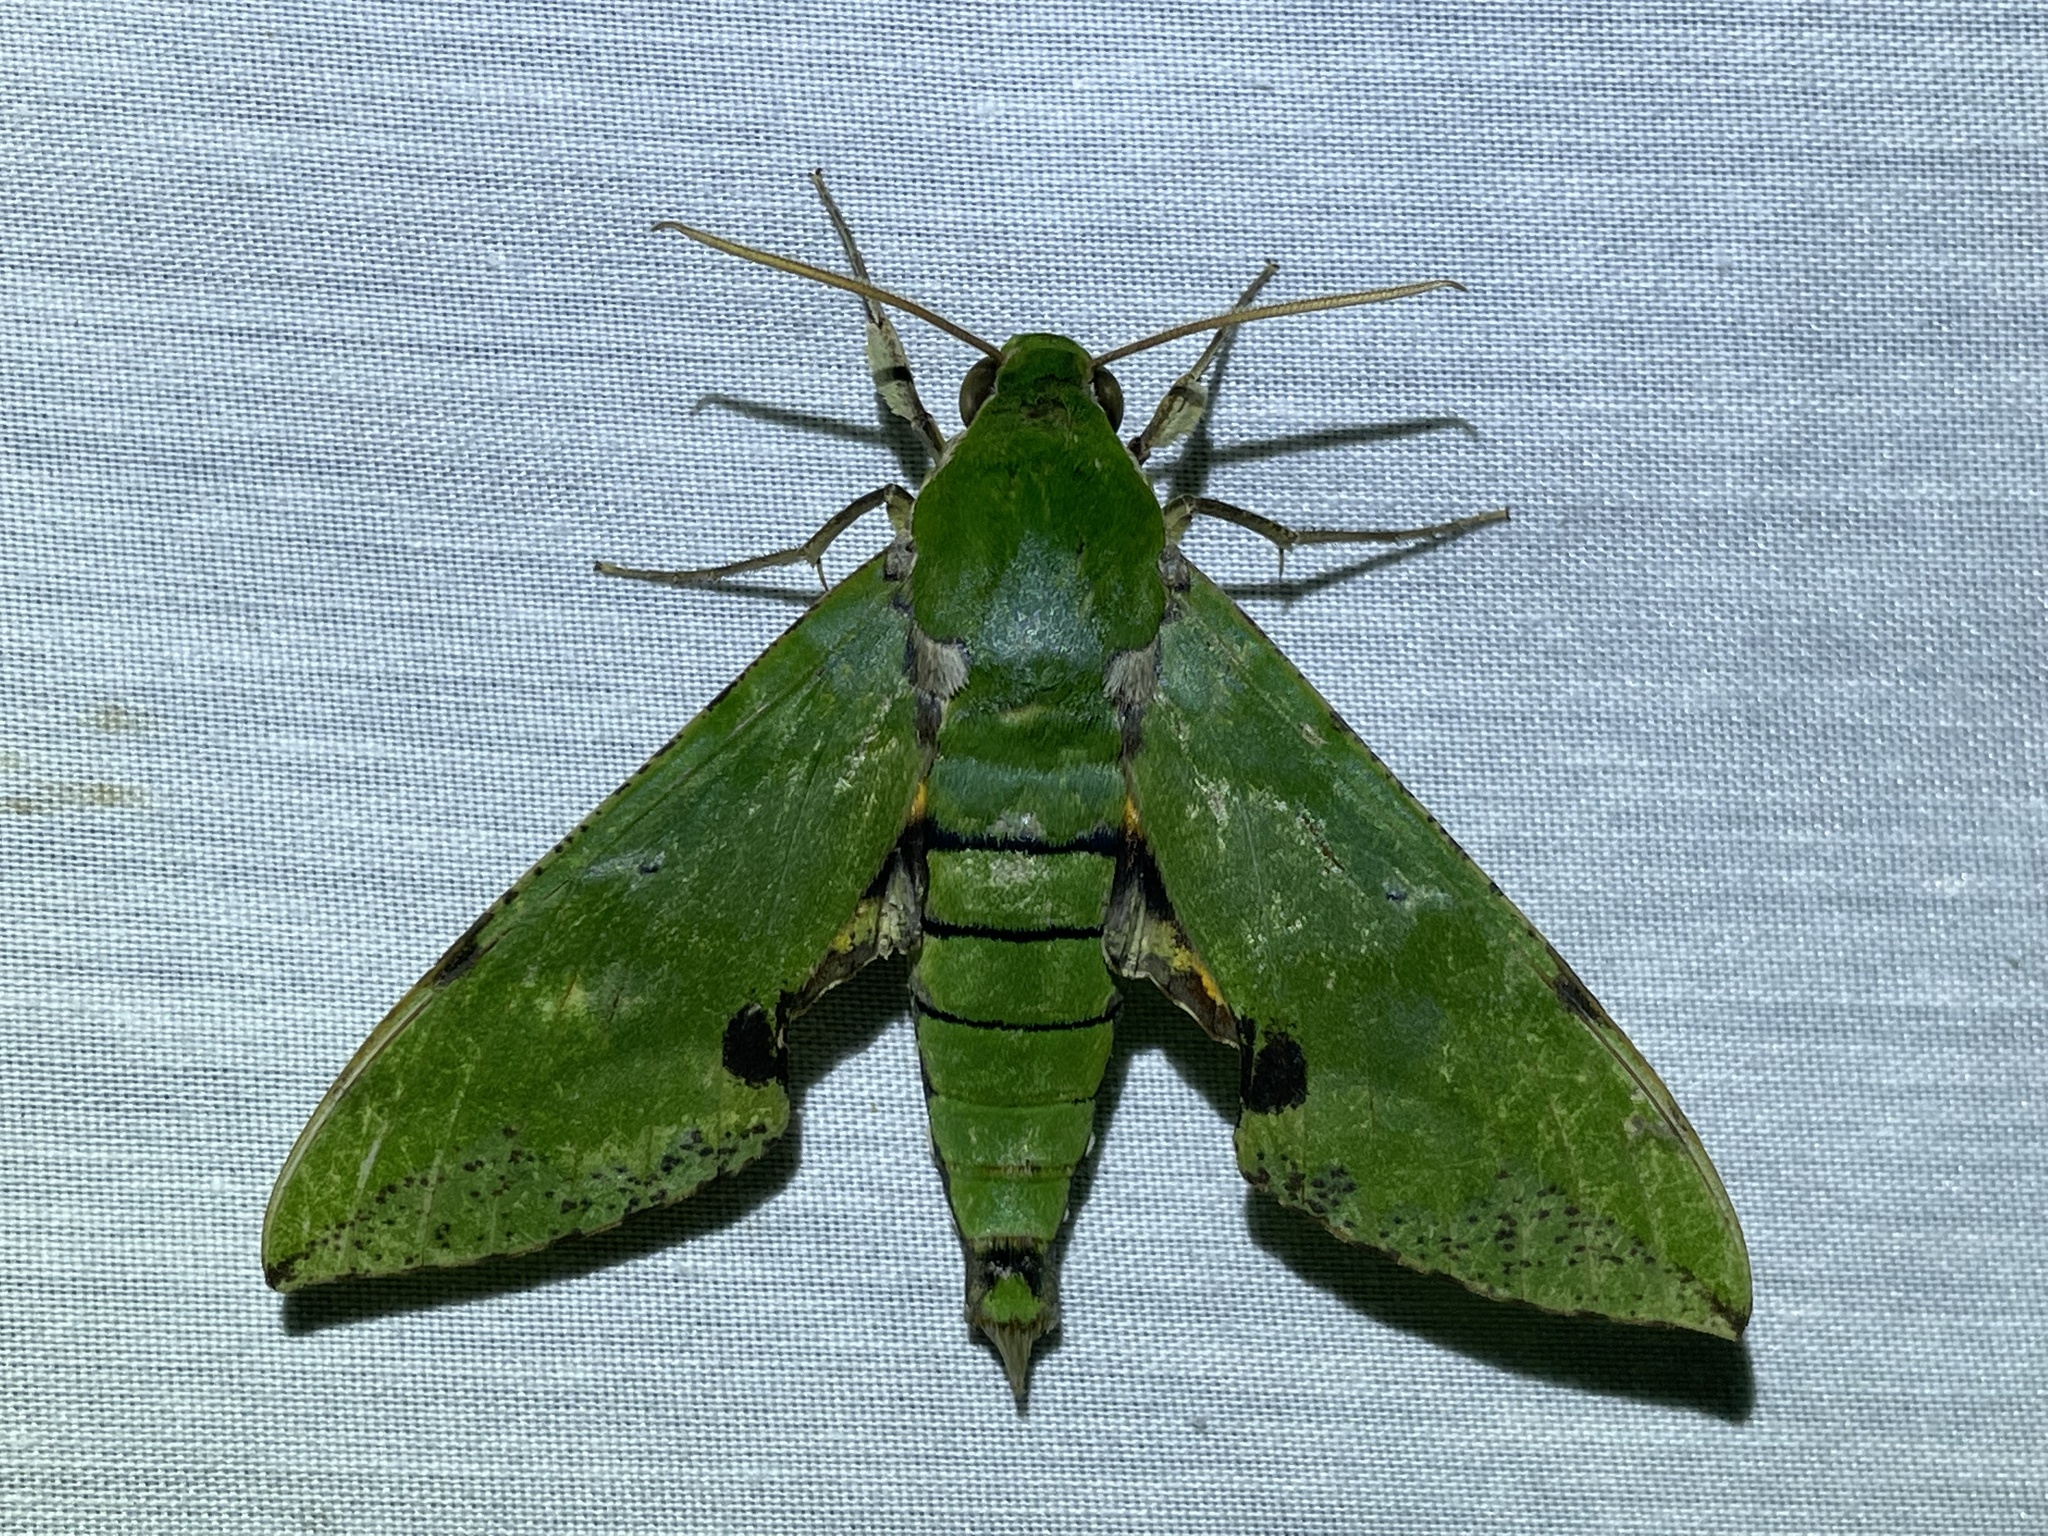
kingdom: Animalia
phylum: Arthropoda
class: Insecta
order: Lepidoptera
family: Sphingidae
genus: Euchloron
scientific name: Euchloron megaera
